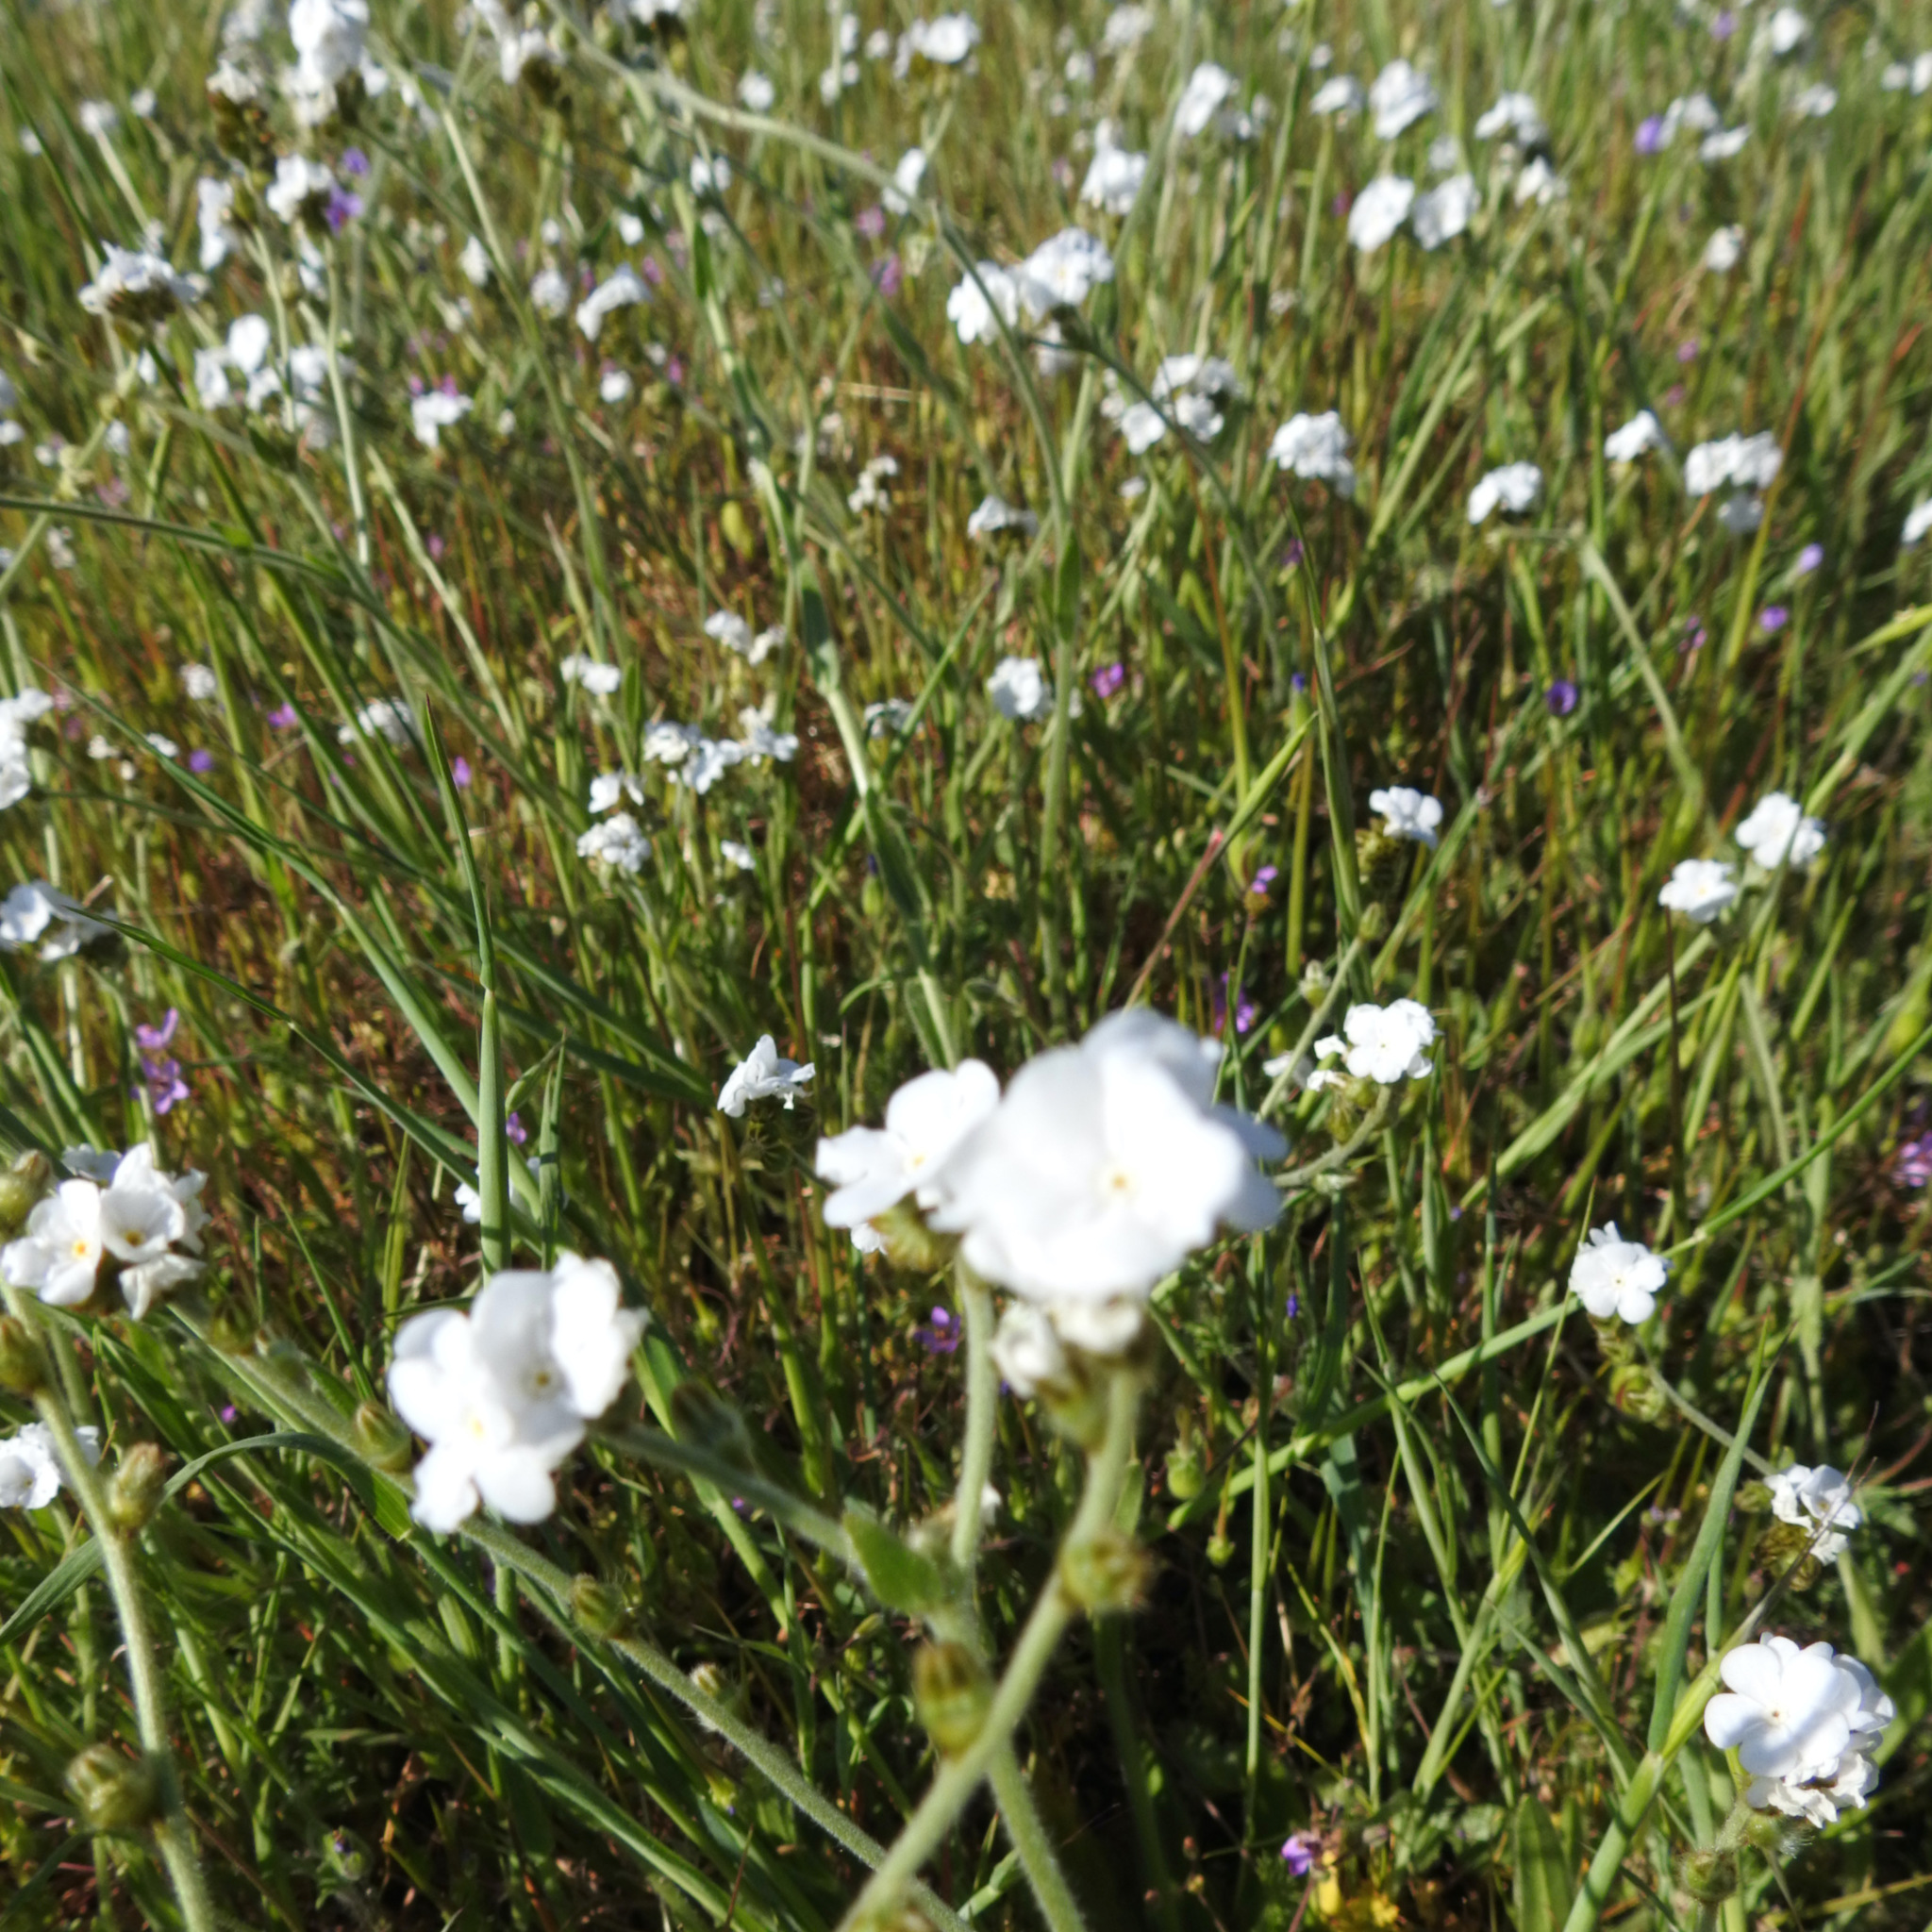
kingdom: Plantae
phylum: Tracheophyta
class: Magnoliopsida
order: Boraginales
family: Boraginaceae
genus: Plagiobothrys
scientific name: Plagiobothrys nothofulvus
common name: Popcorn-flower
